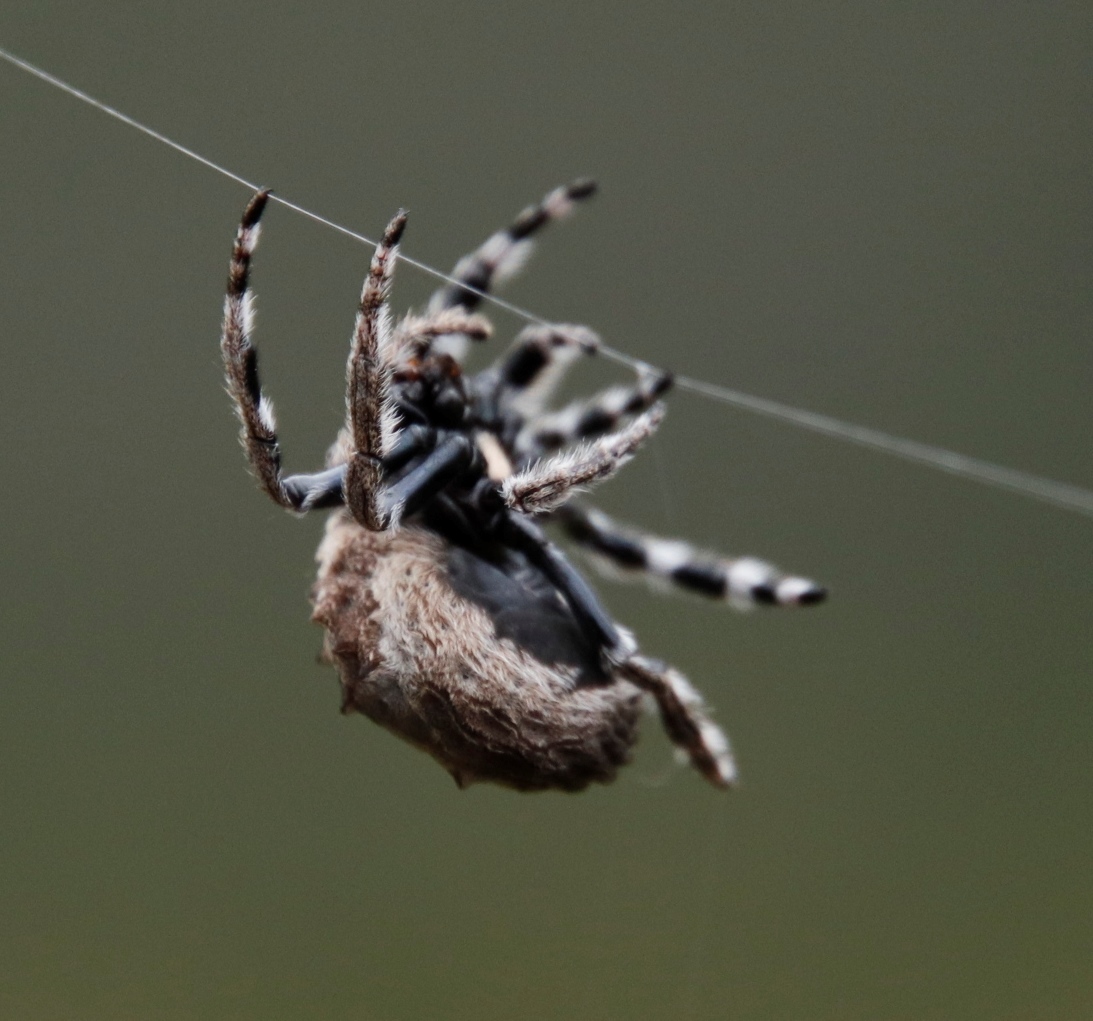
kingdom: Animalia
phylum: Arthropoda
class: Arachnida
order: Araneae
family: Araneidae
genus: Caerostris
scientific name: Caerostris sexcuspidata
